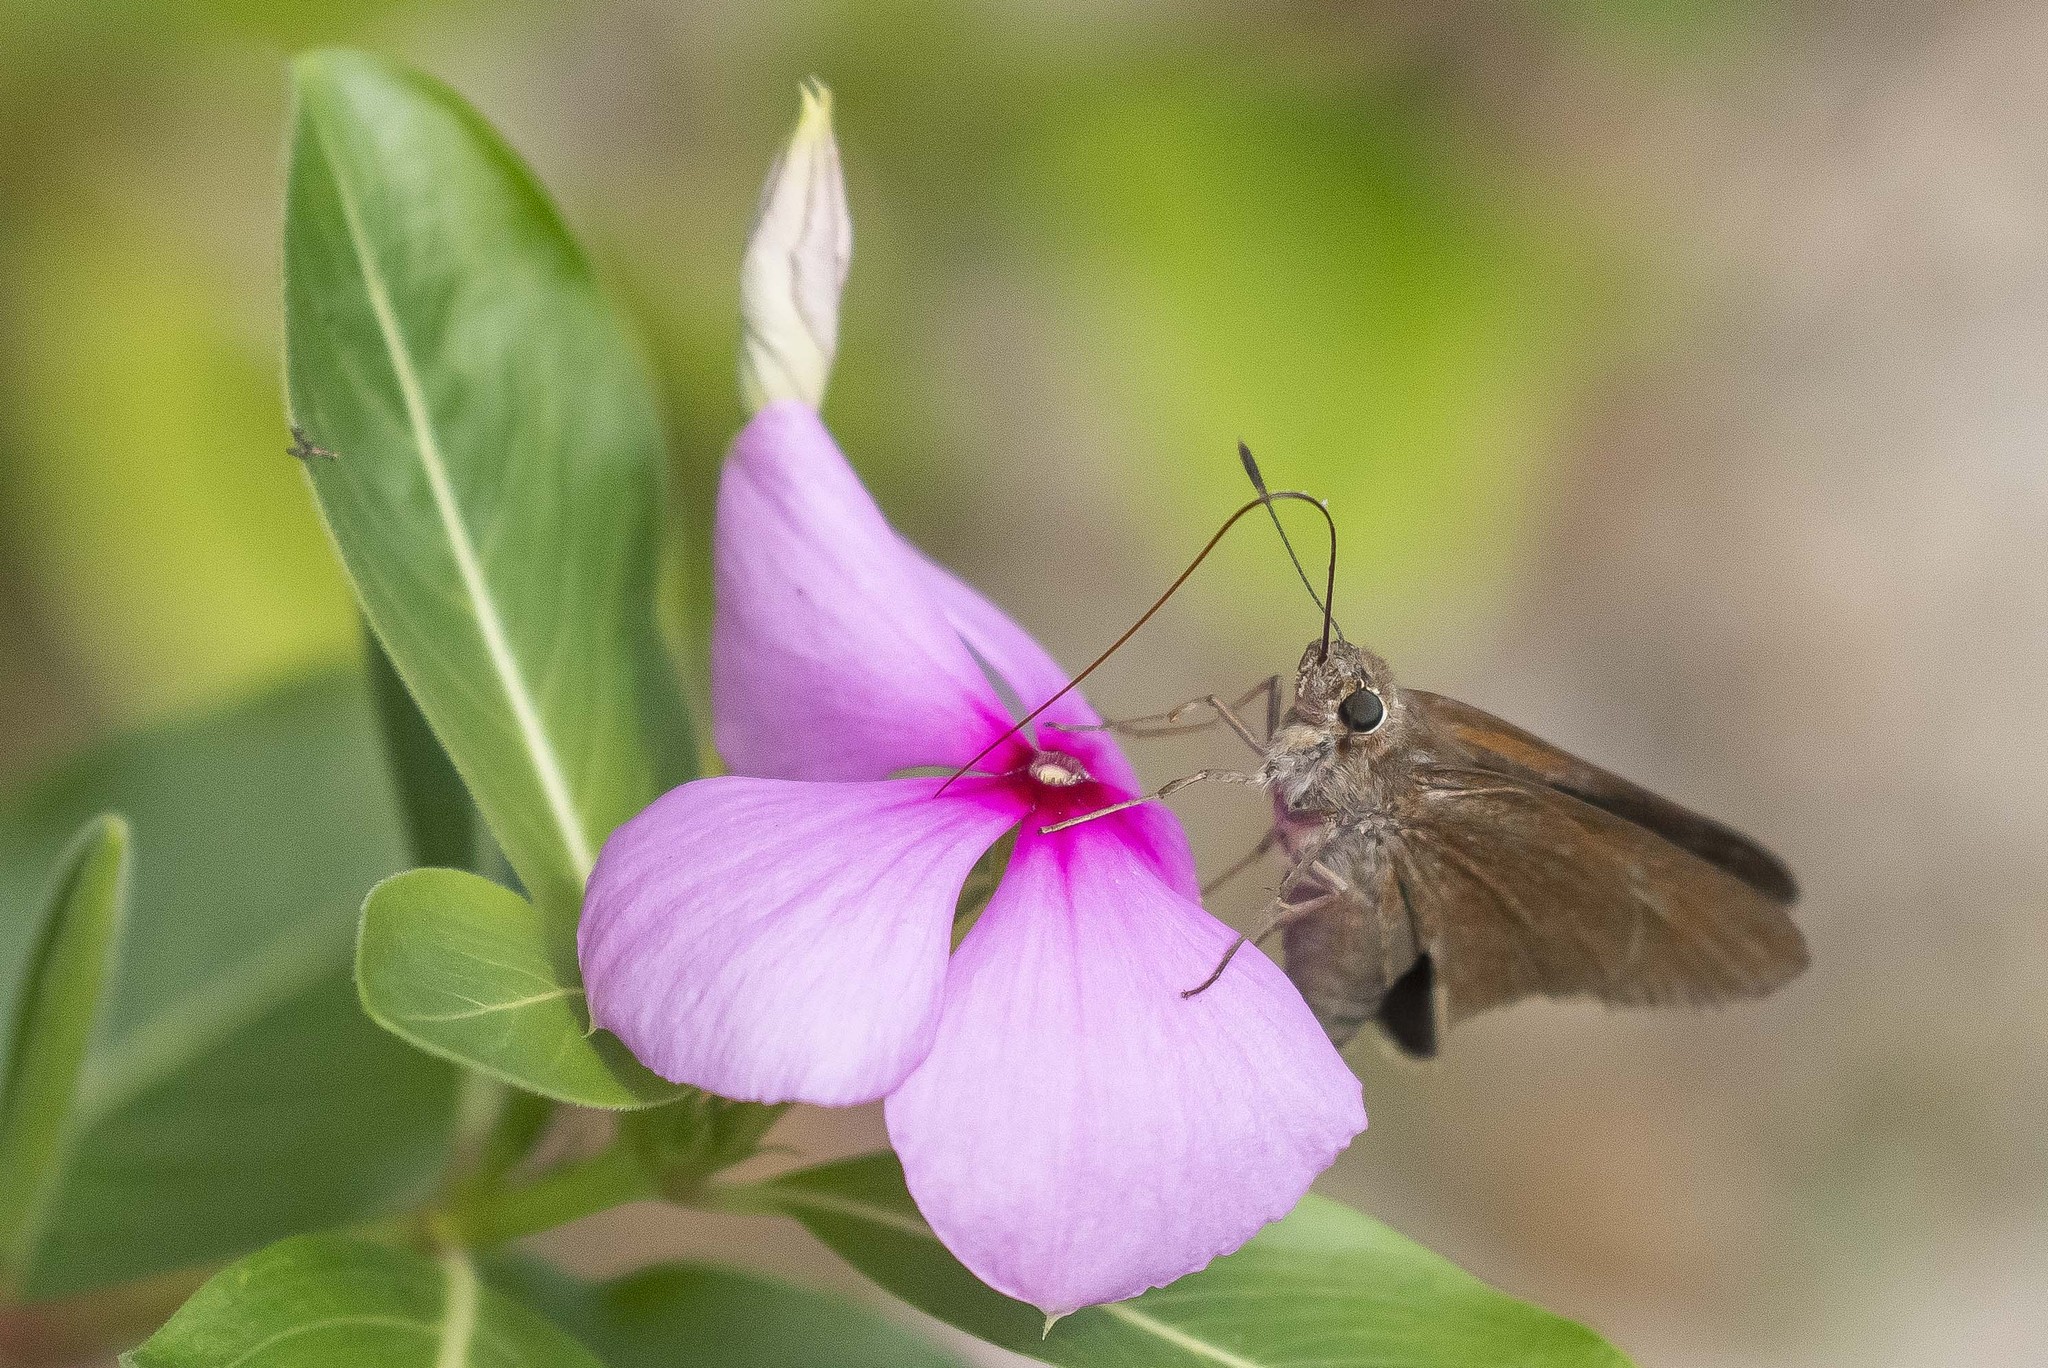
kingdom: Animalia
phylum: Arthropoda
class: Insecta
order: Lepidoptera
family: Hesperiidae
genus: Asbolis
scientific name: Asbolis capucinus
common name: Monk skipper
